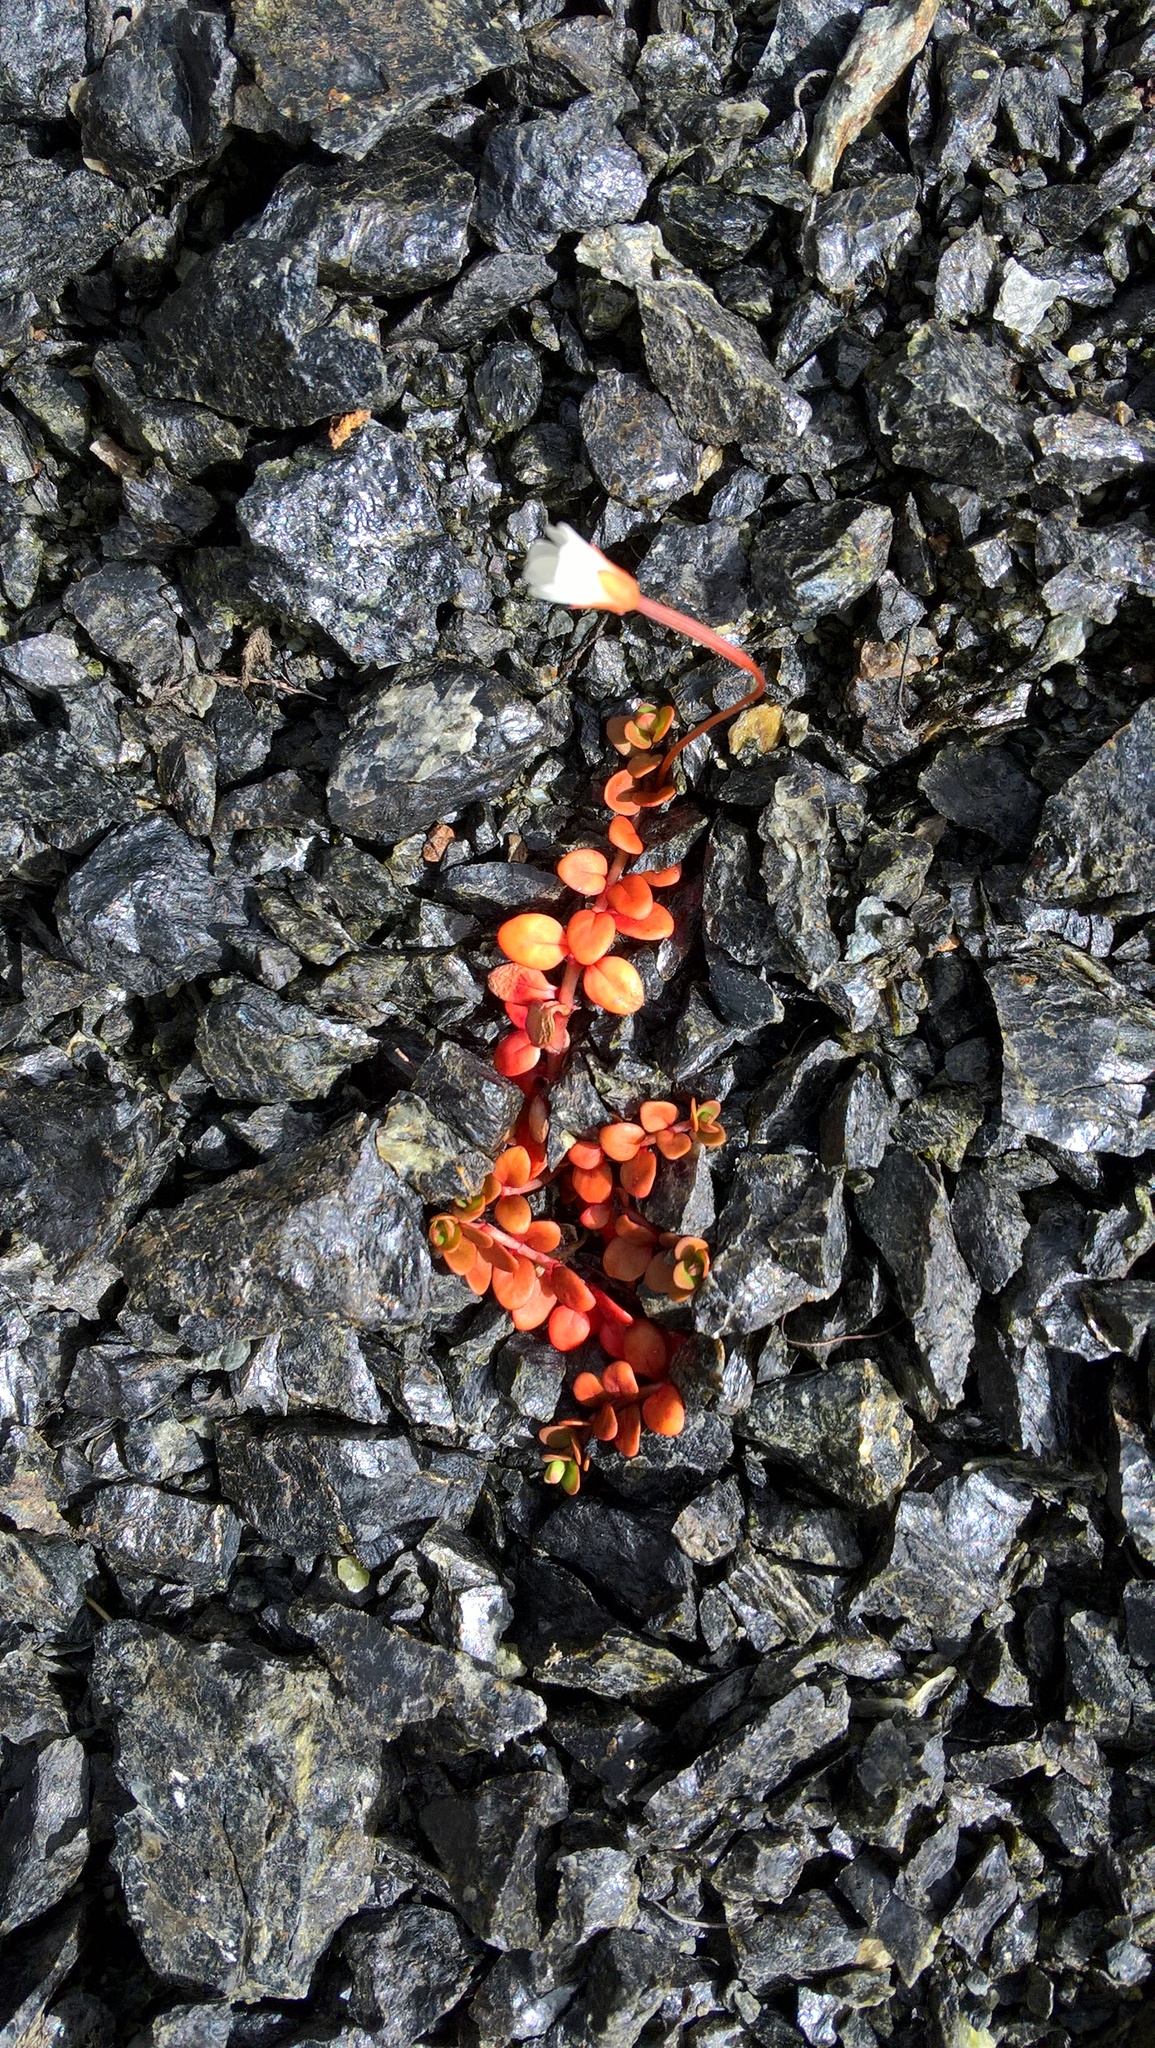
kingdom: Plantae
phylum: Tracheophyta
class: Magnoliopsida
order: Myrtales
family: Onagraceae
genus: Epilobium
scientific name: Epilobium brunnescens
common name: New zealand willowherb
